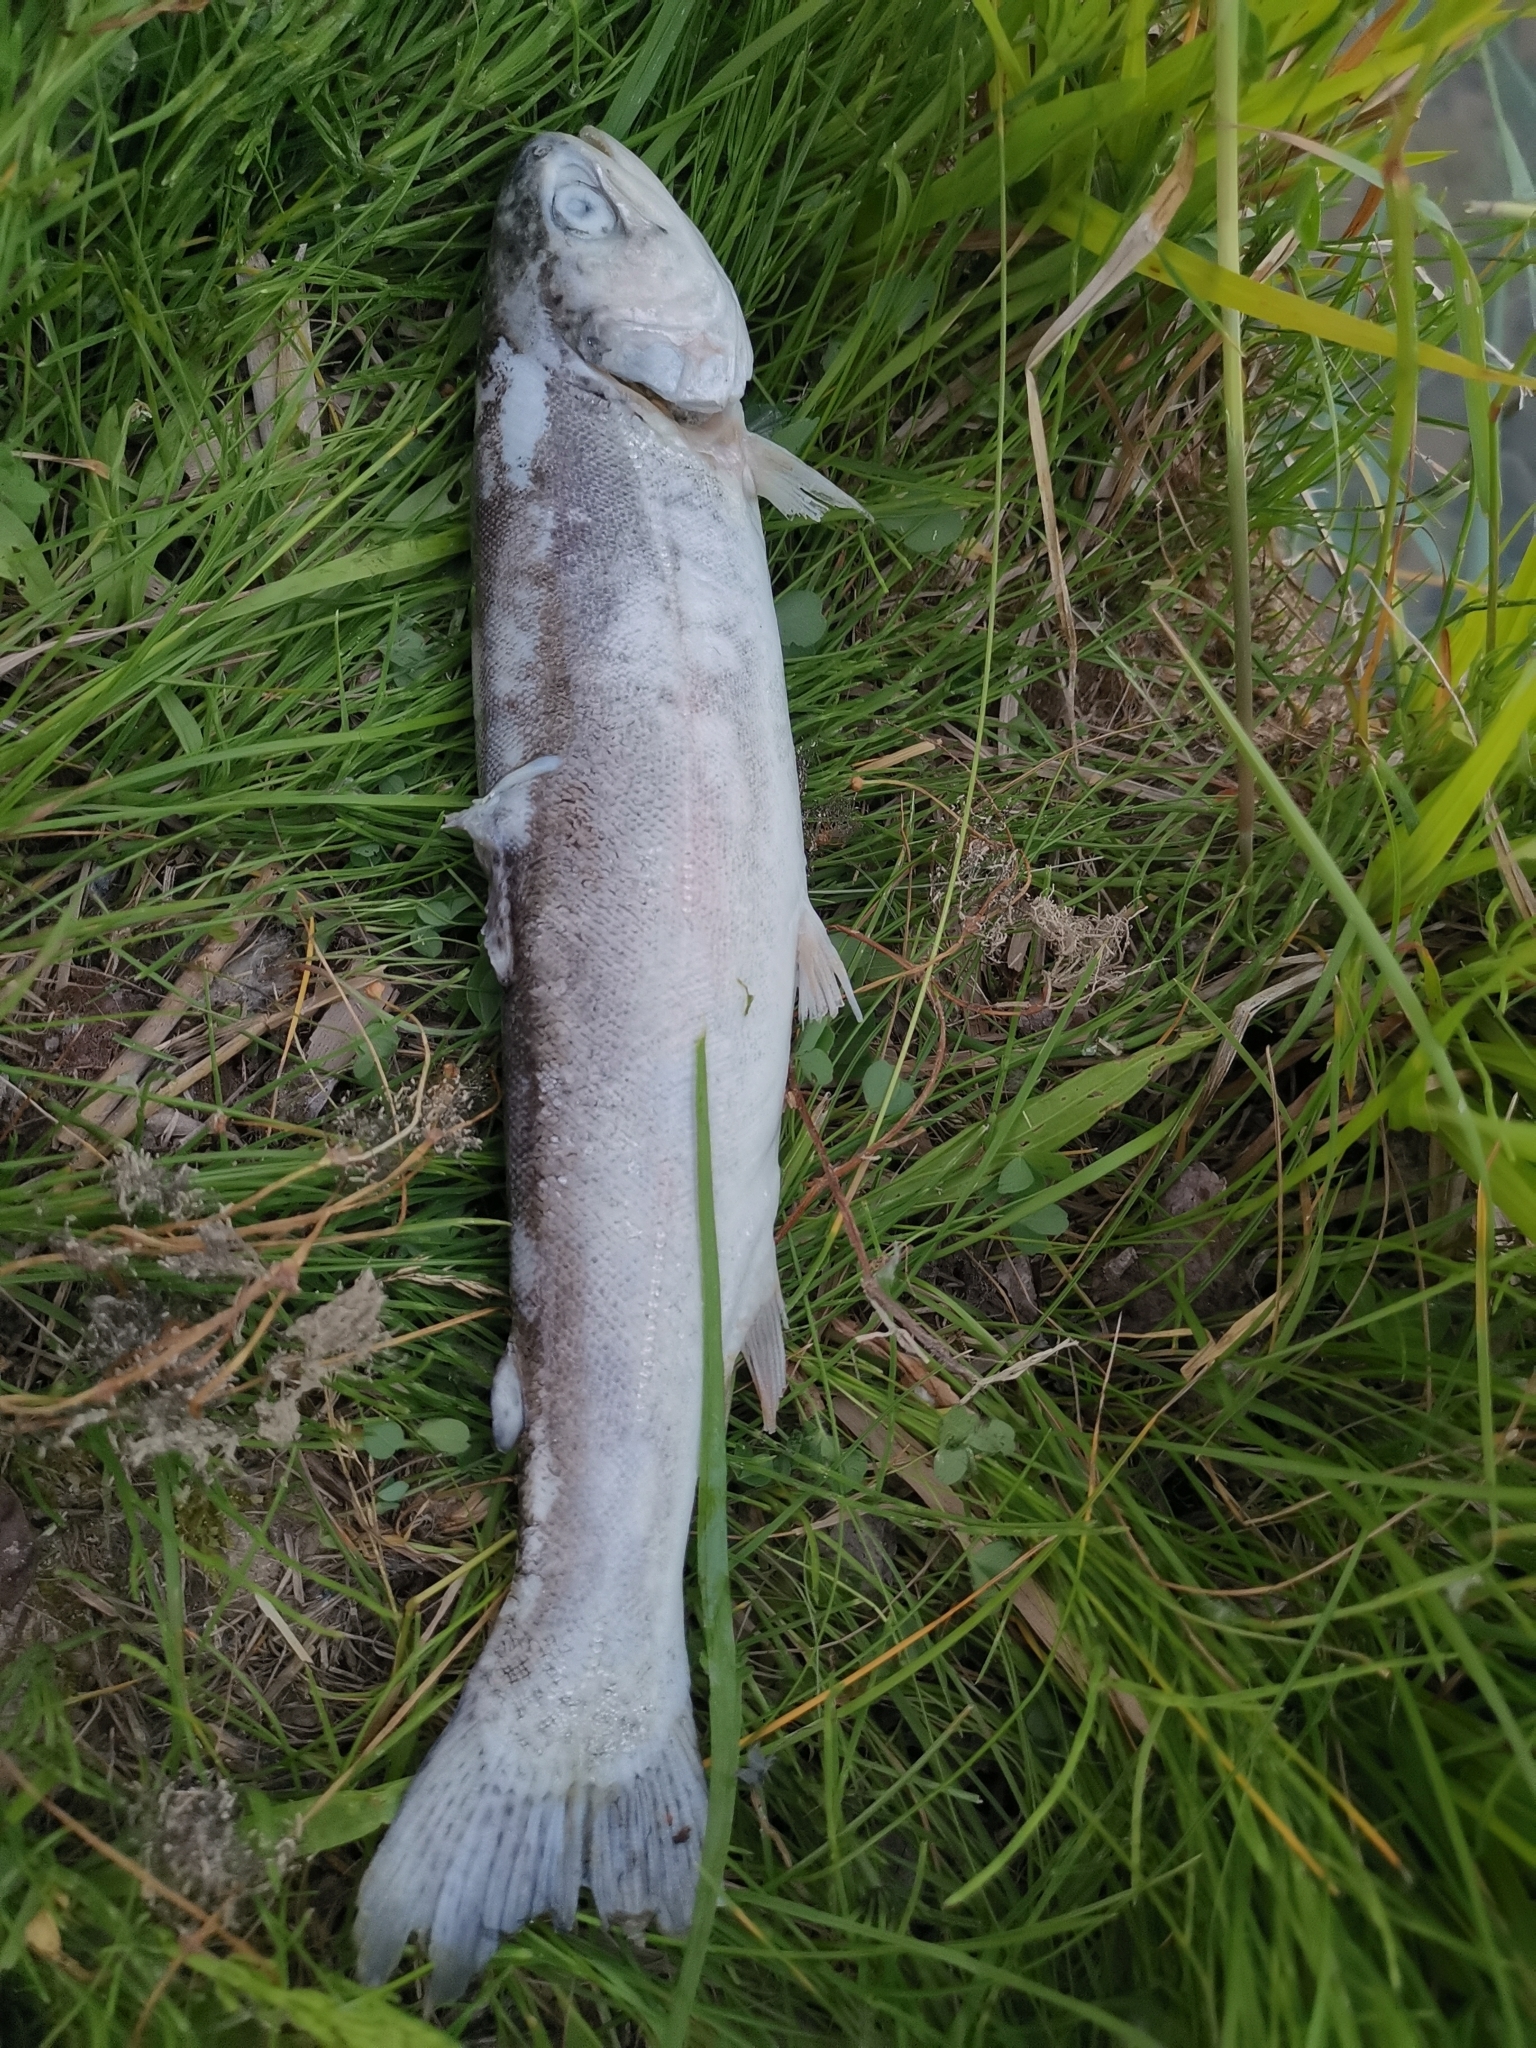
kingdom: Animalia
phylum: Chordata
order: Salmoniformes
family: Salmonidae
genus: Oncorhynchus
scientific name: Oncorhynchus mykiss
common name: Rainbow trout
